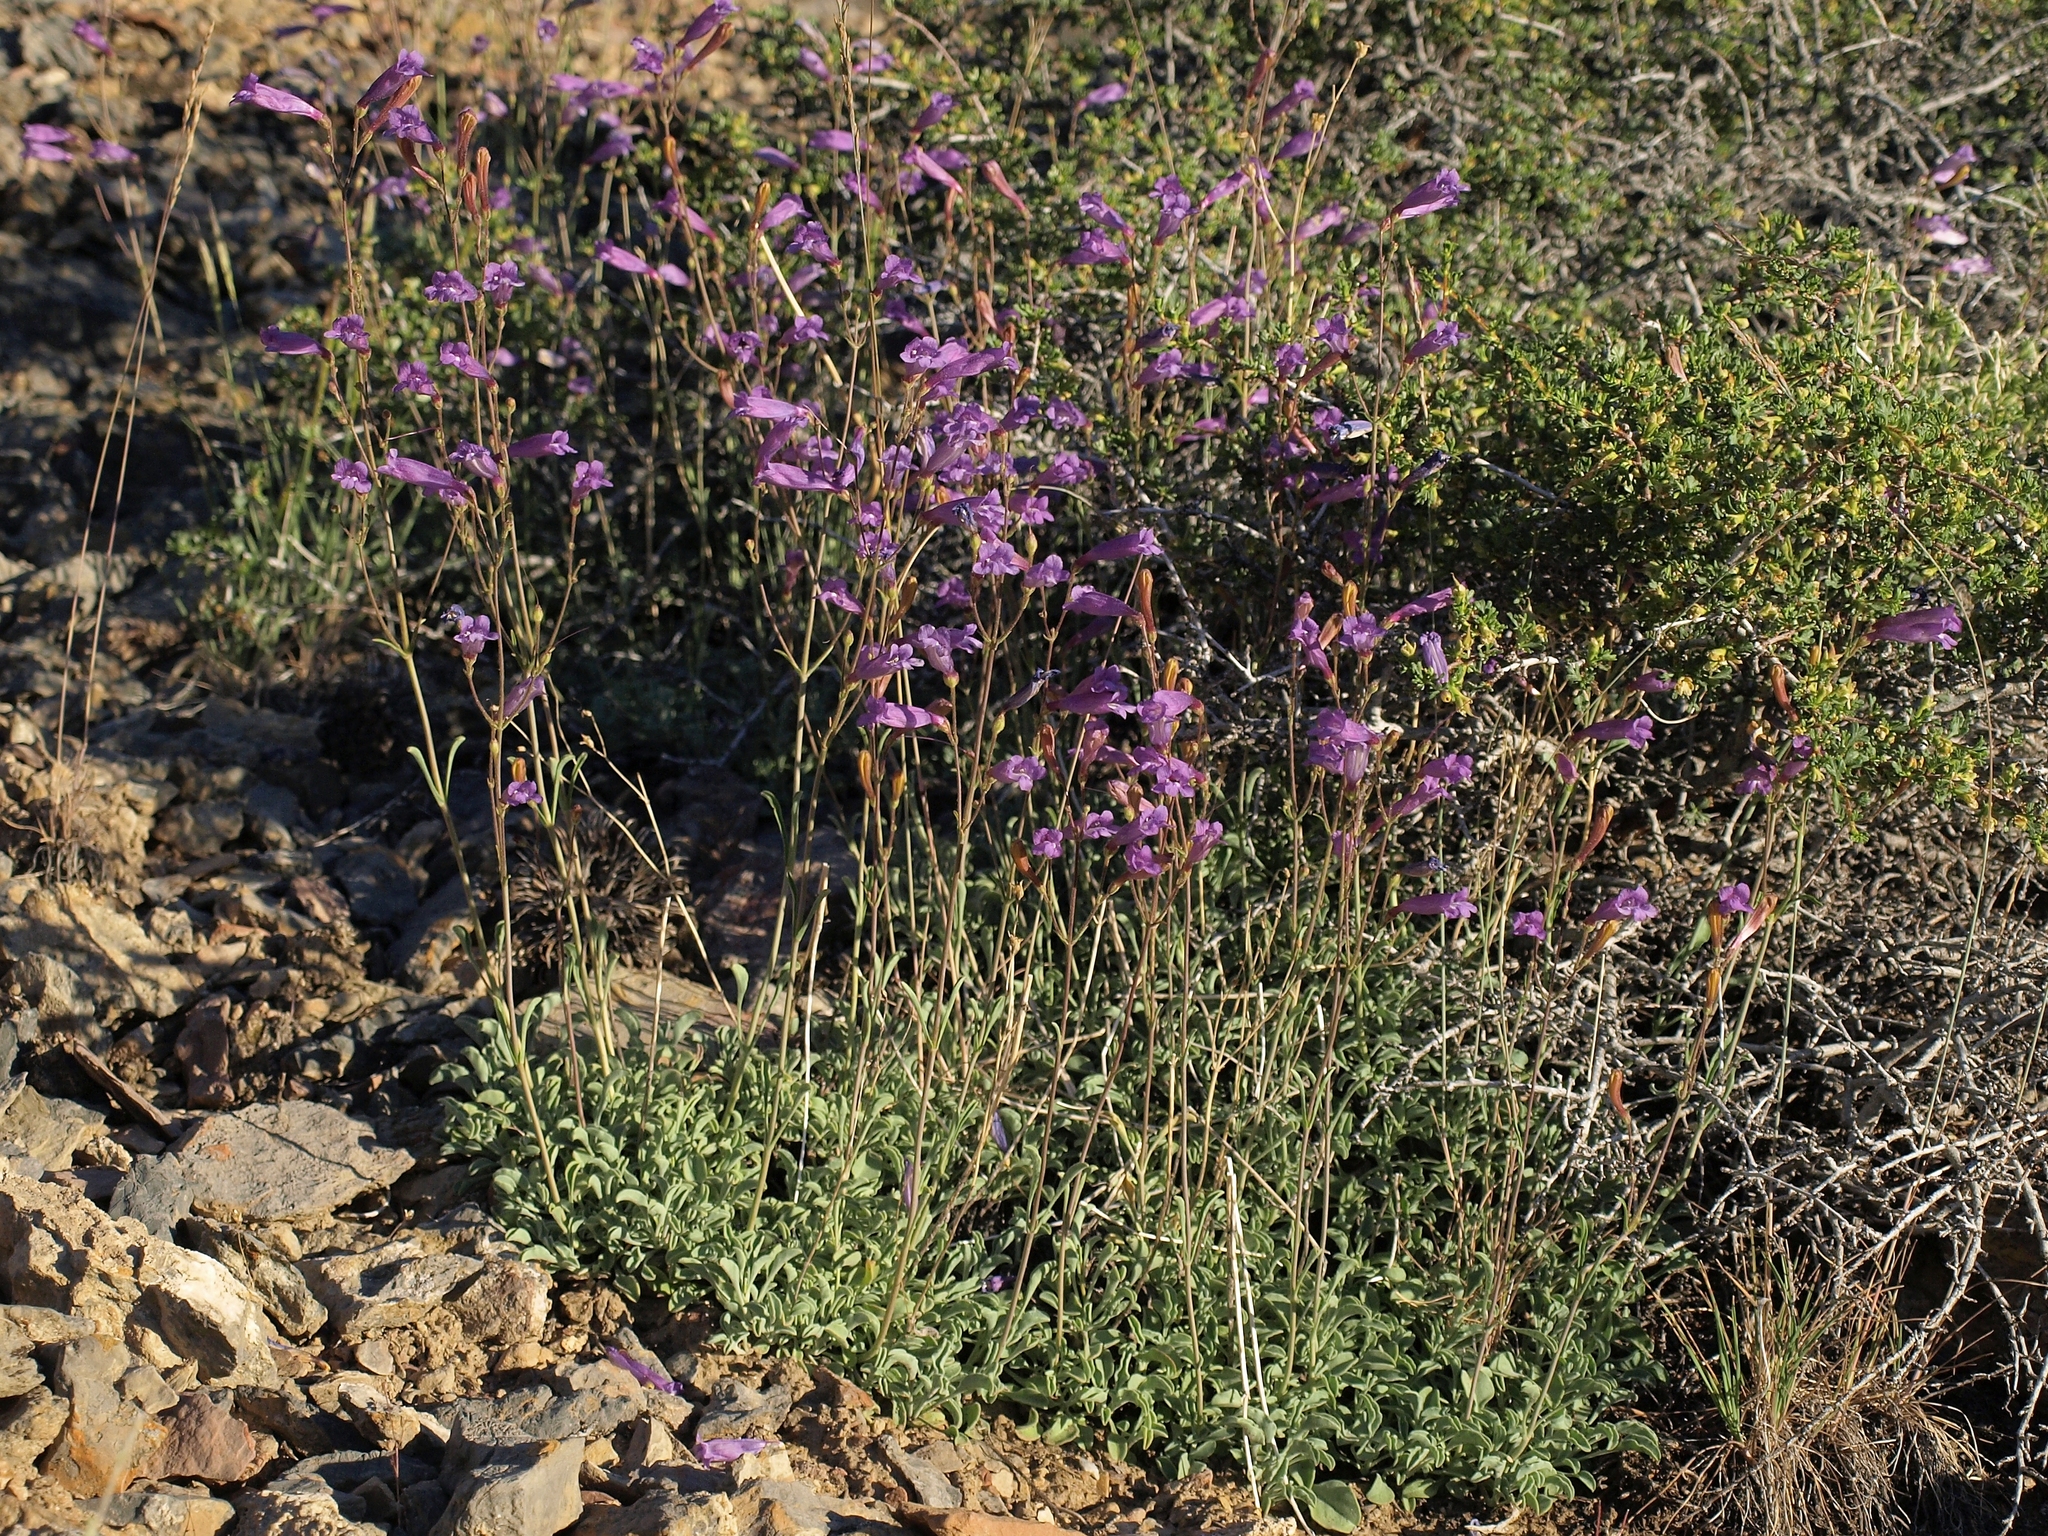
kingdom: Plantae
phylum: Tracheophyta
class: Magnoliopsida
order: Lamiales
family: Plantaginaceae
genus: Penstemon
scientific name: Penstemon scapoides
